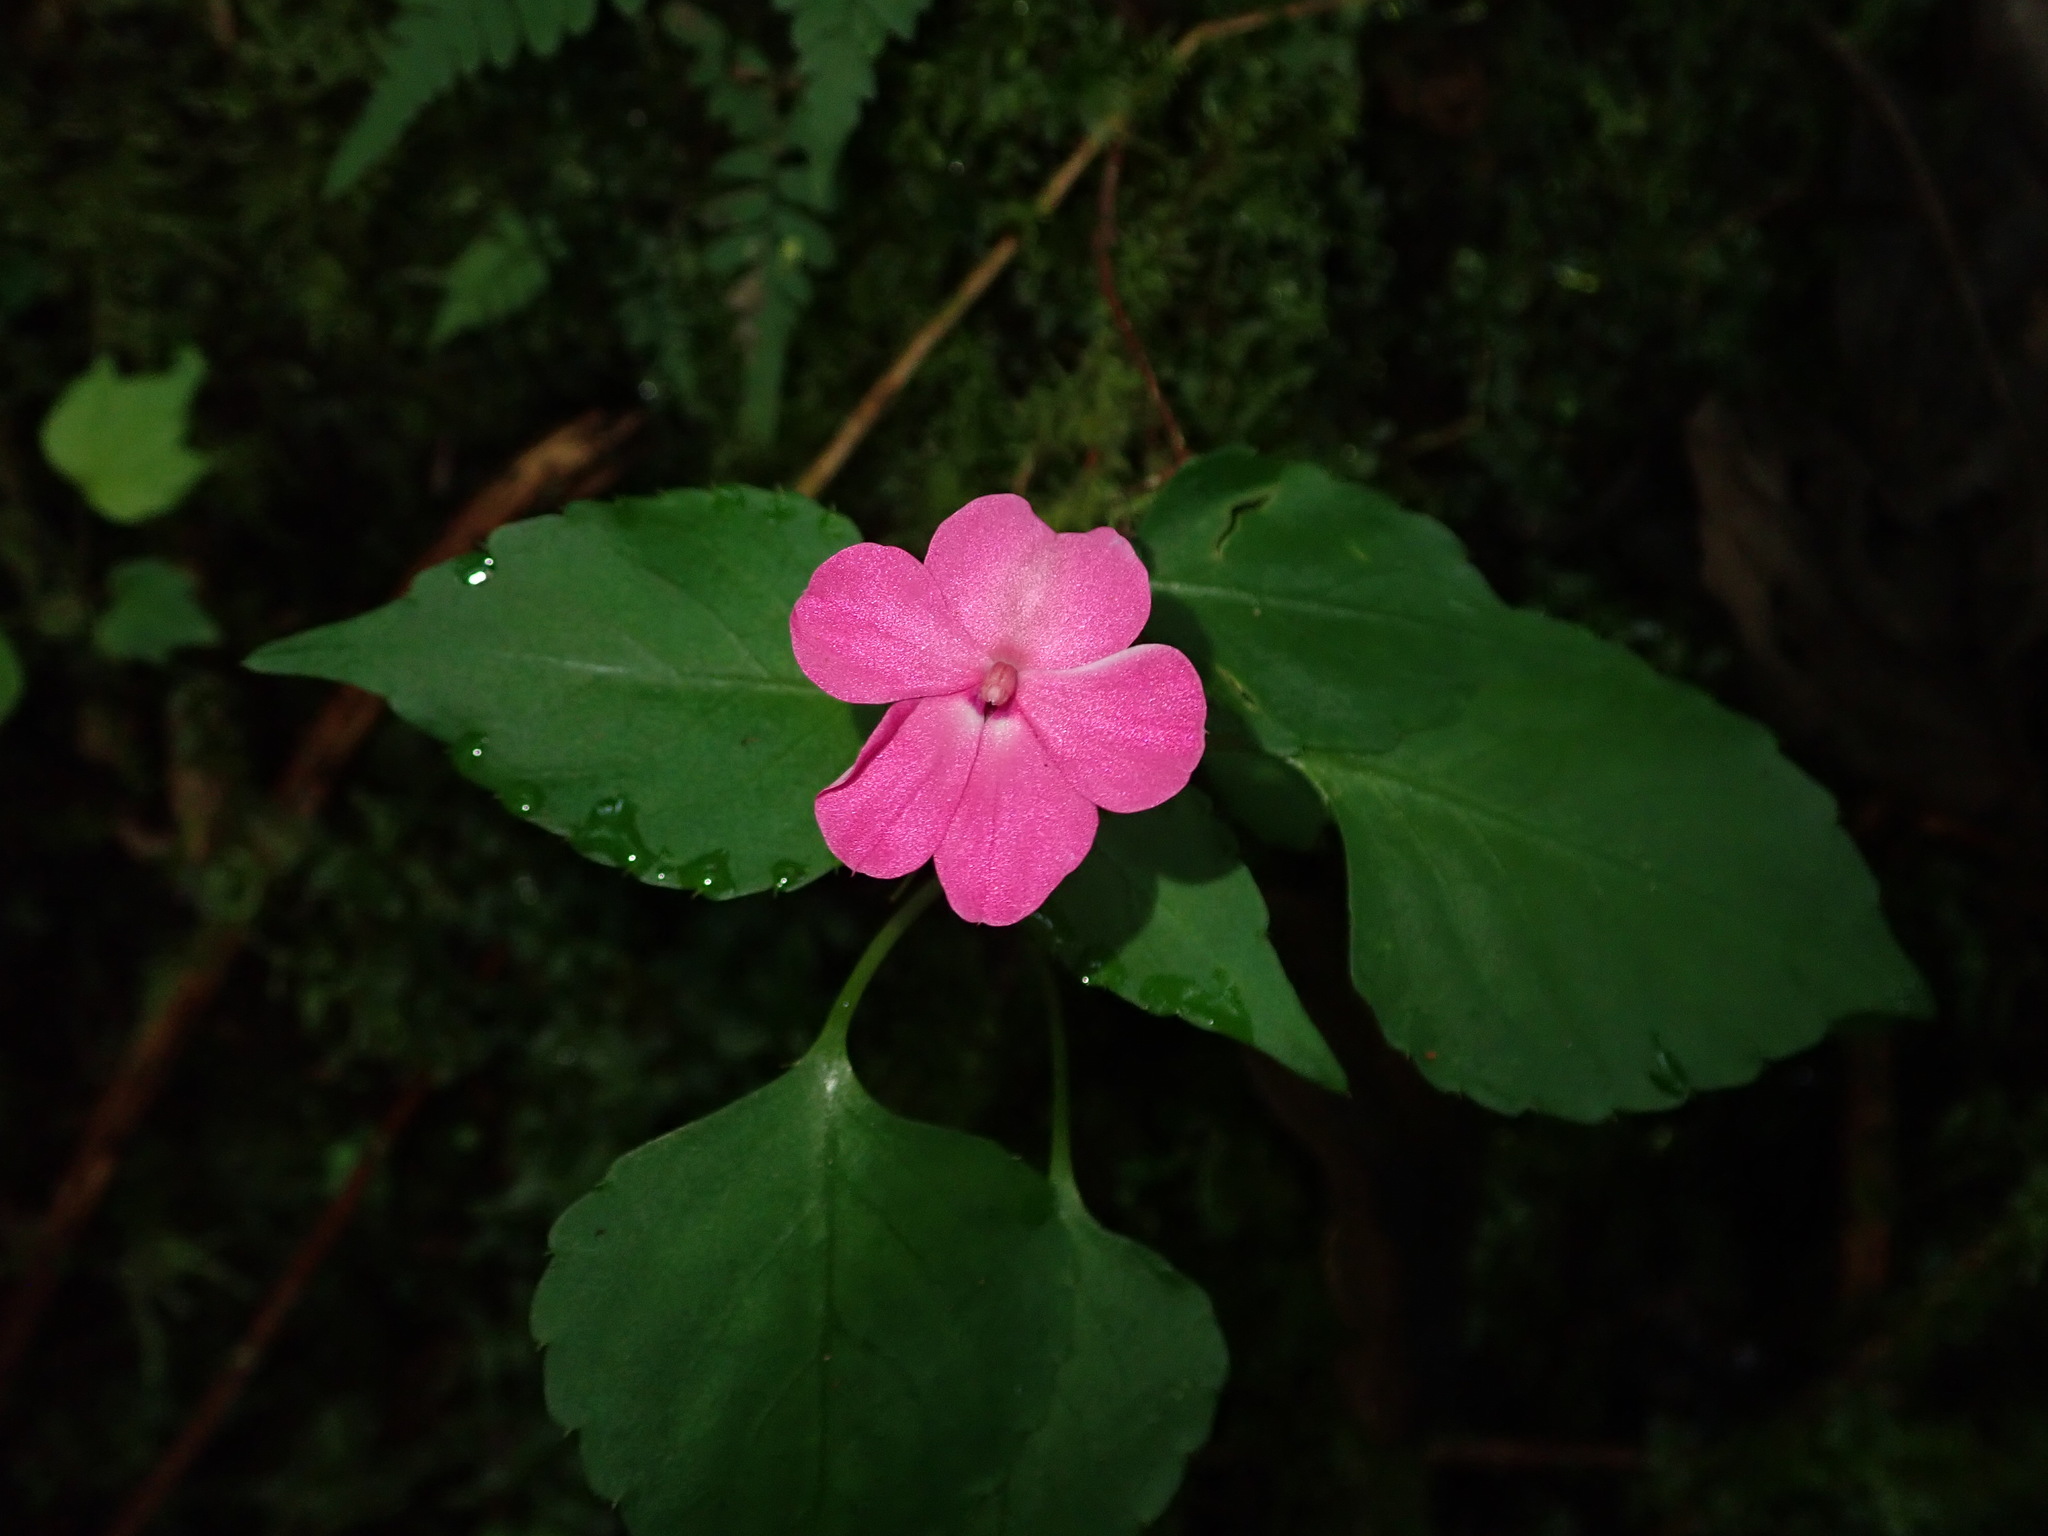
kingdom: Plantae
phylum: Tracheophyta
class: Magnoliopsida
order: Ericales
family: Balsaminaceae
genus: Impatiens
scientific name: Impatiens walleriana
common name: Buzzy lizzy
